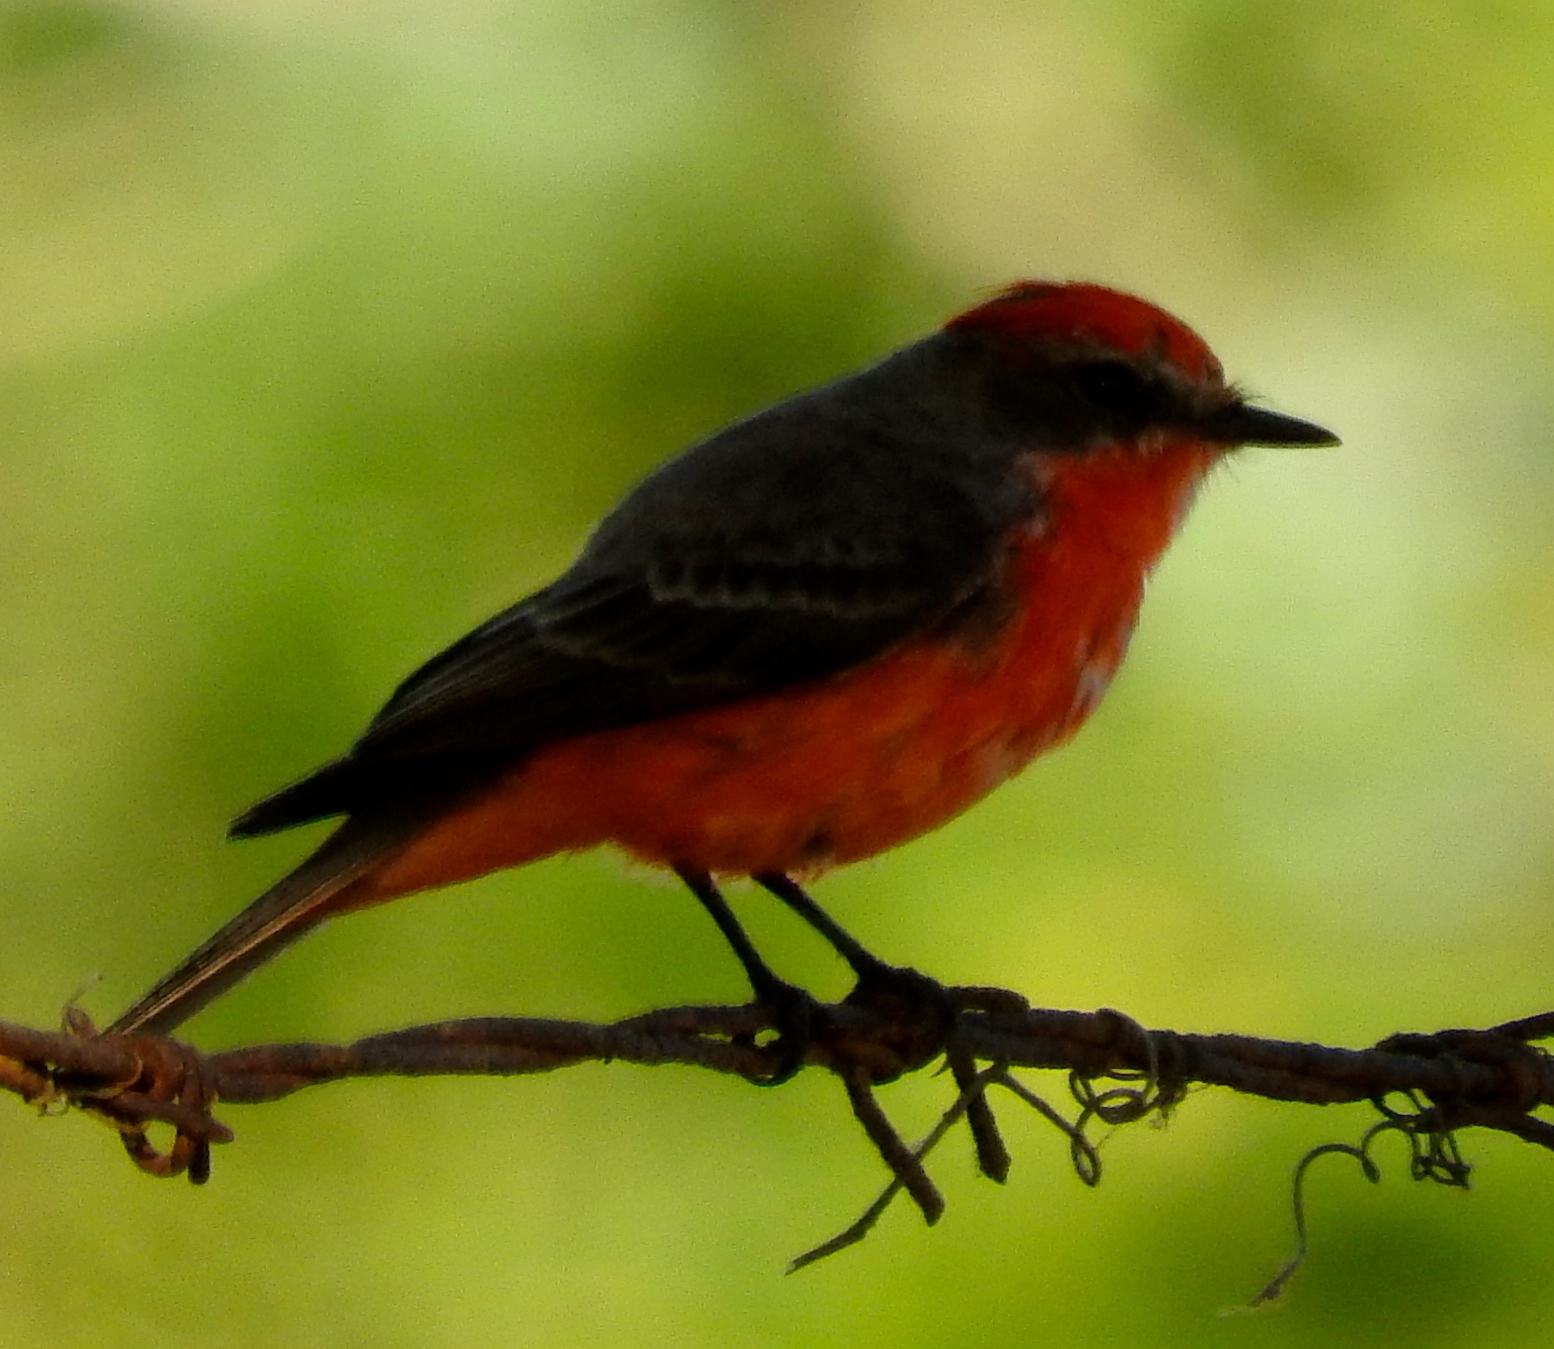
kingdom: Animalia
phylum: Chordata
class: Aves
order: Passeriformes
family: Tyrannidae
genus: Pyrocephalus
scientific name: Pyrocephalus rubinus
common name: Vermilion flycatcher
